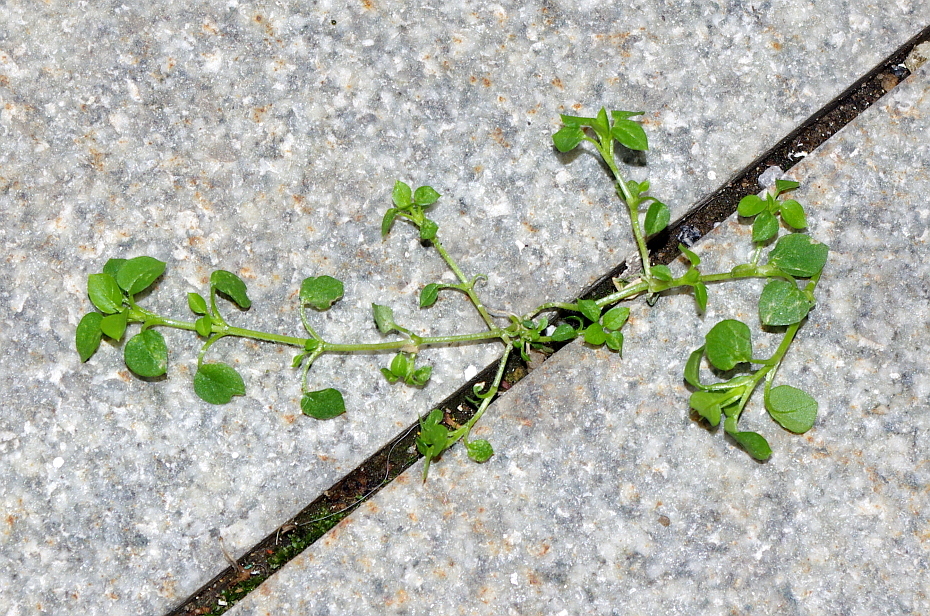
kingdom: Plantae
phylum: Tracheophyta
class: Magnoliopsida
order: Caryophyllales
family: Caryophyllaceae
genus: Stellaria
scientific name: Stellaria media
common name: Common chickweed
